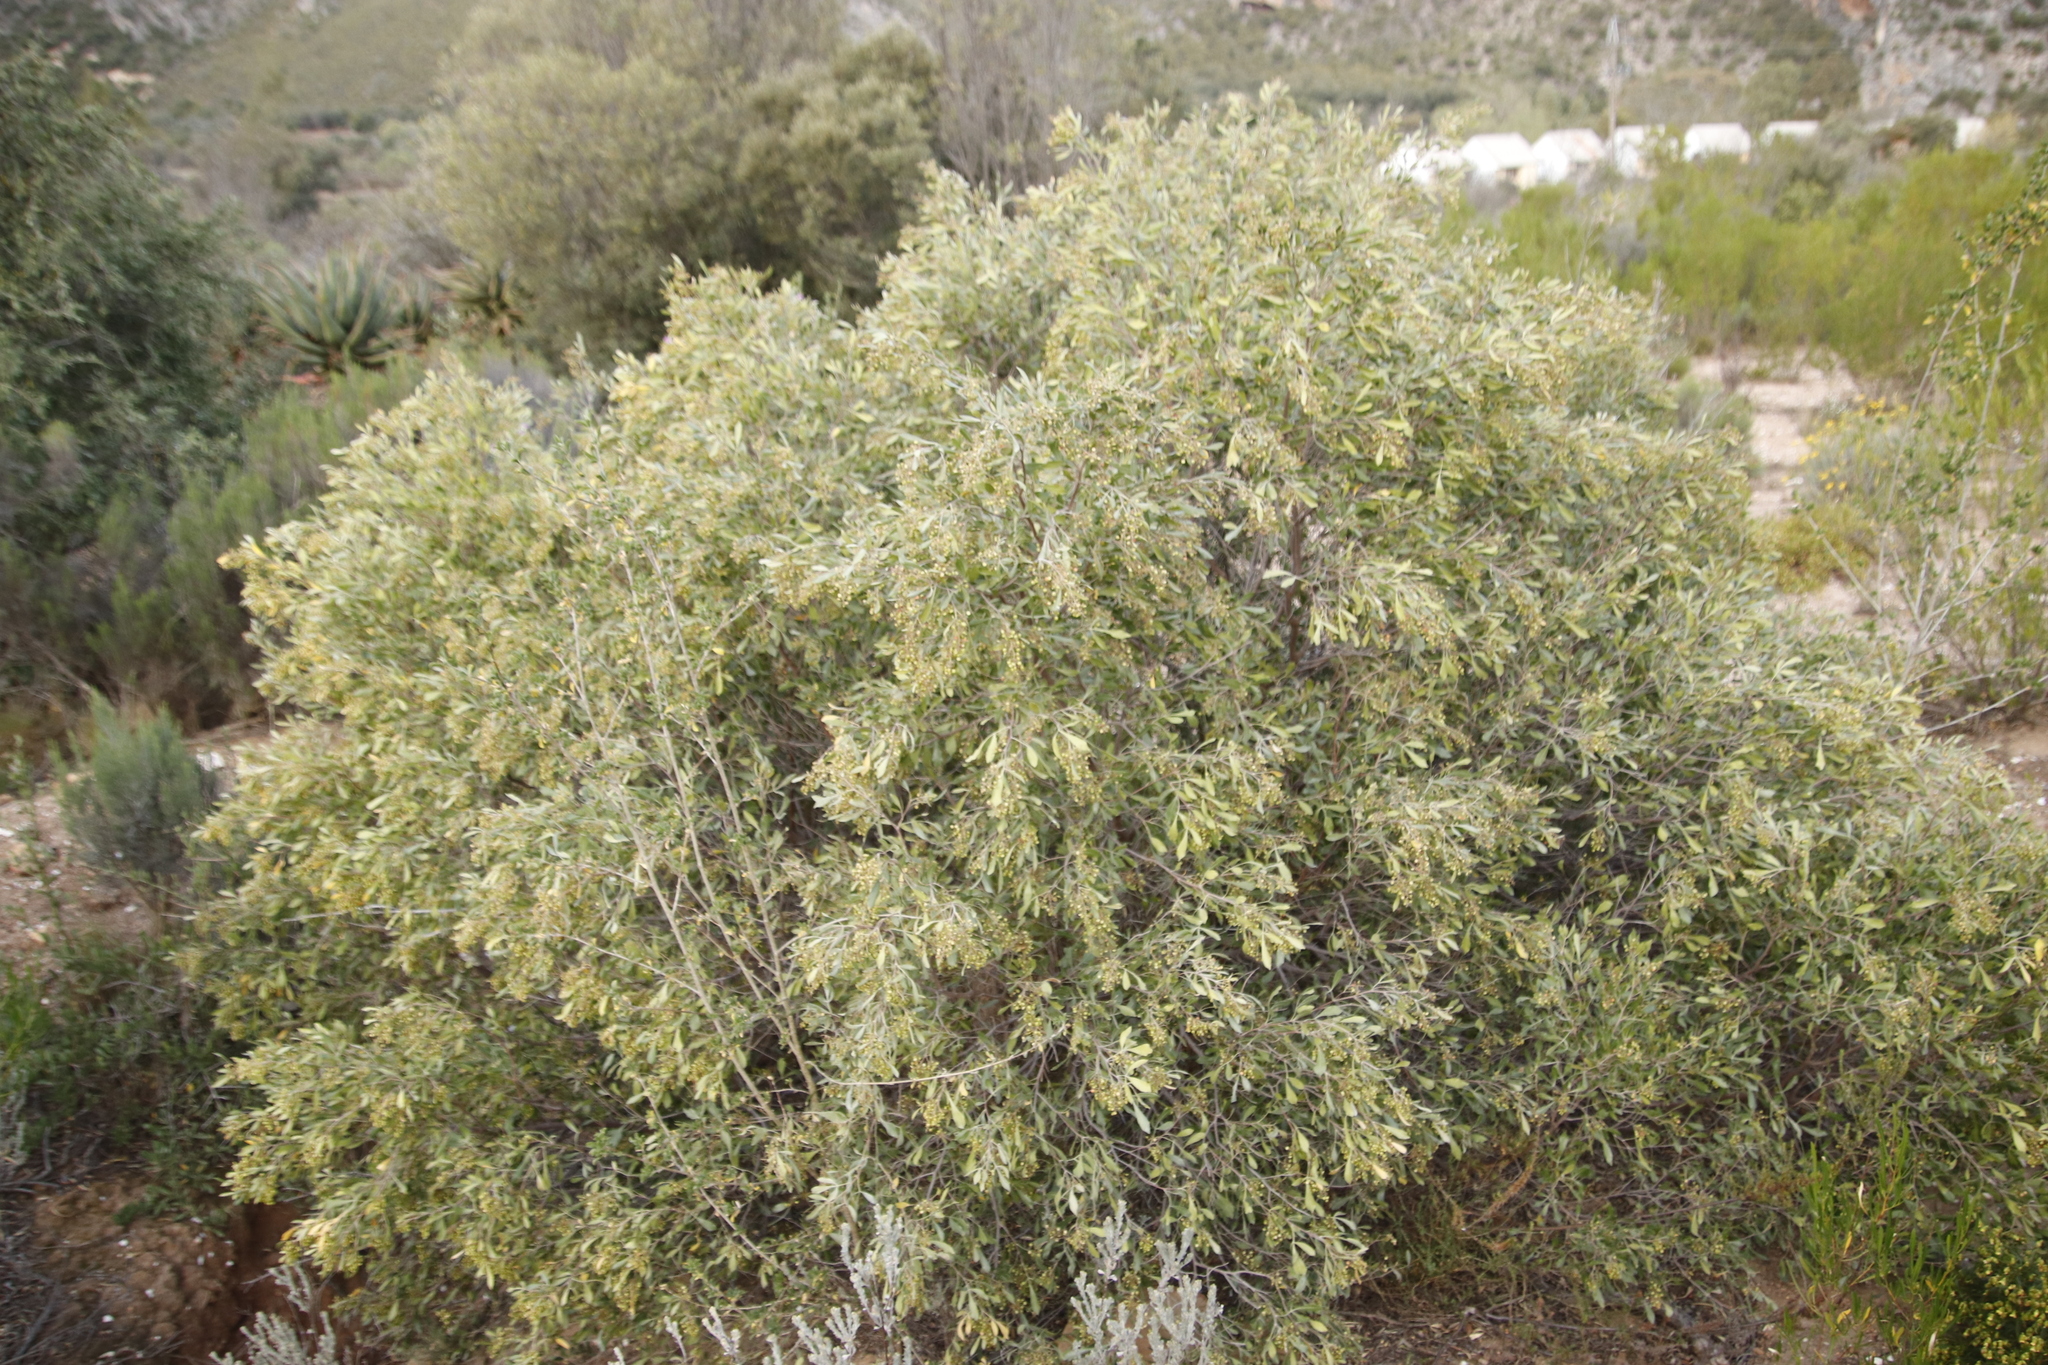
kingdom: Plantae
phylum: Tracheophyta
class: Magnoliopsida
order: Sapindales
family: Anacardiaceae
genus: Searsia
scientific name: Searsia pallens
